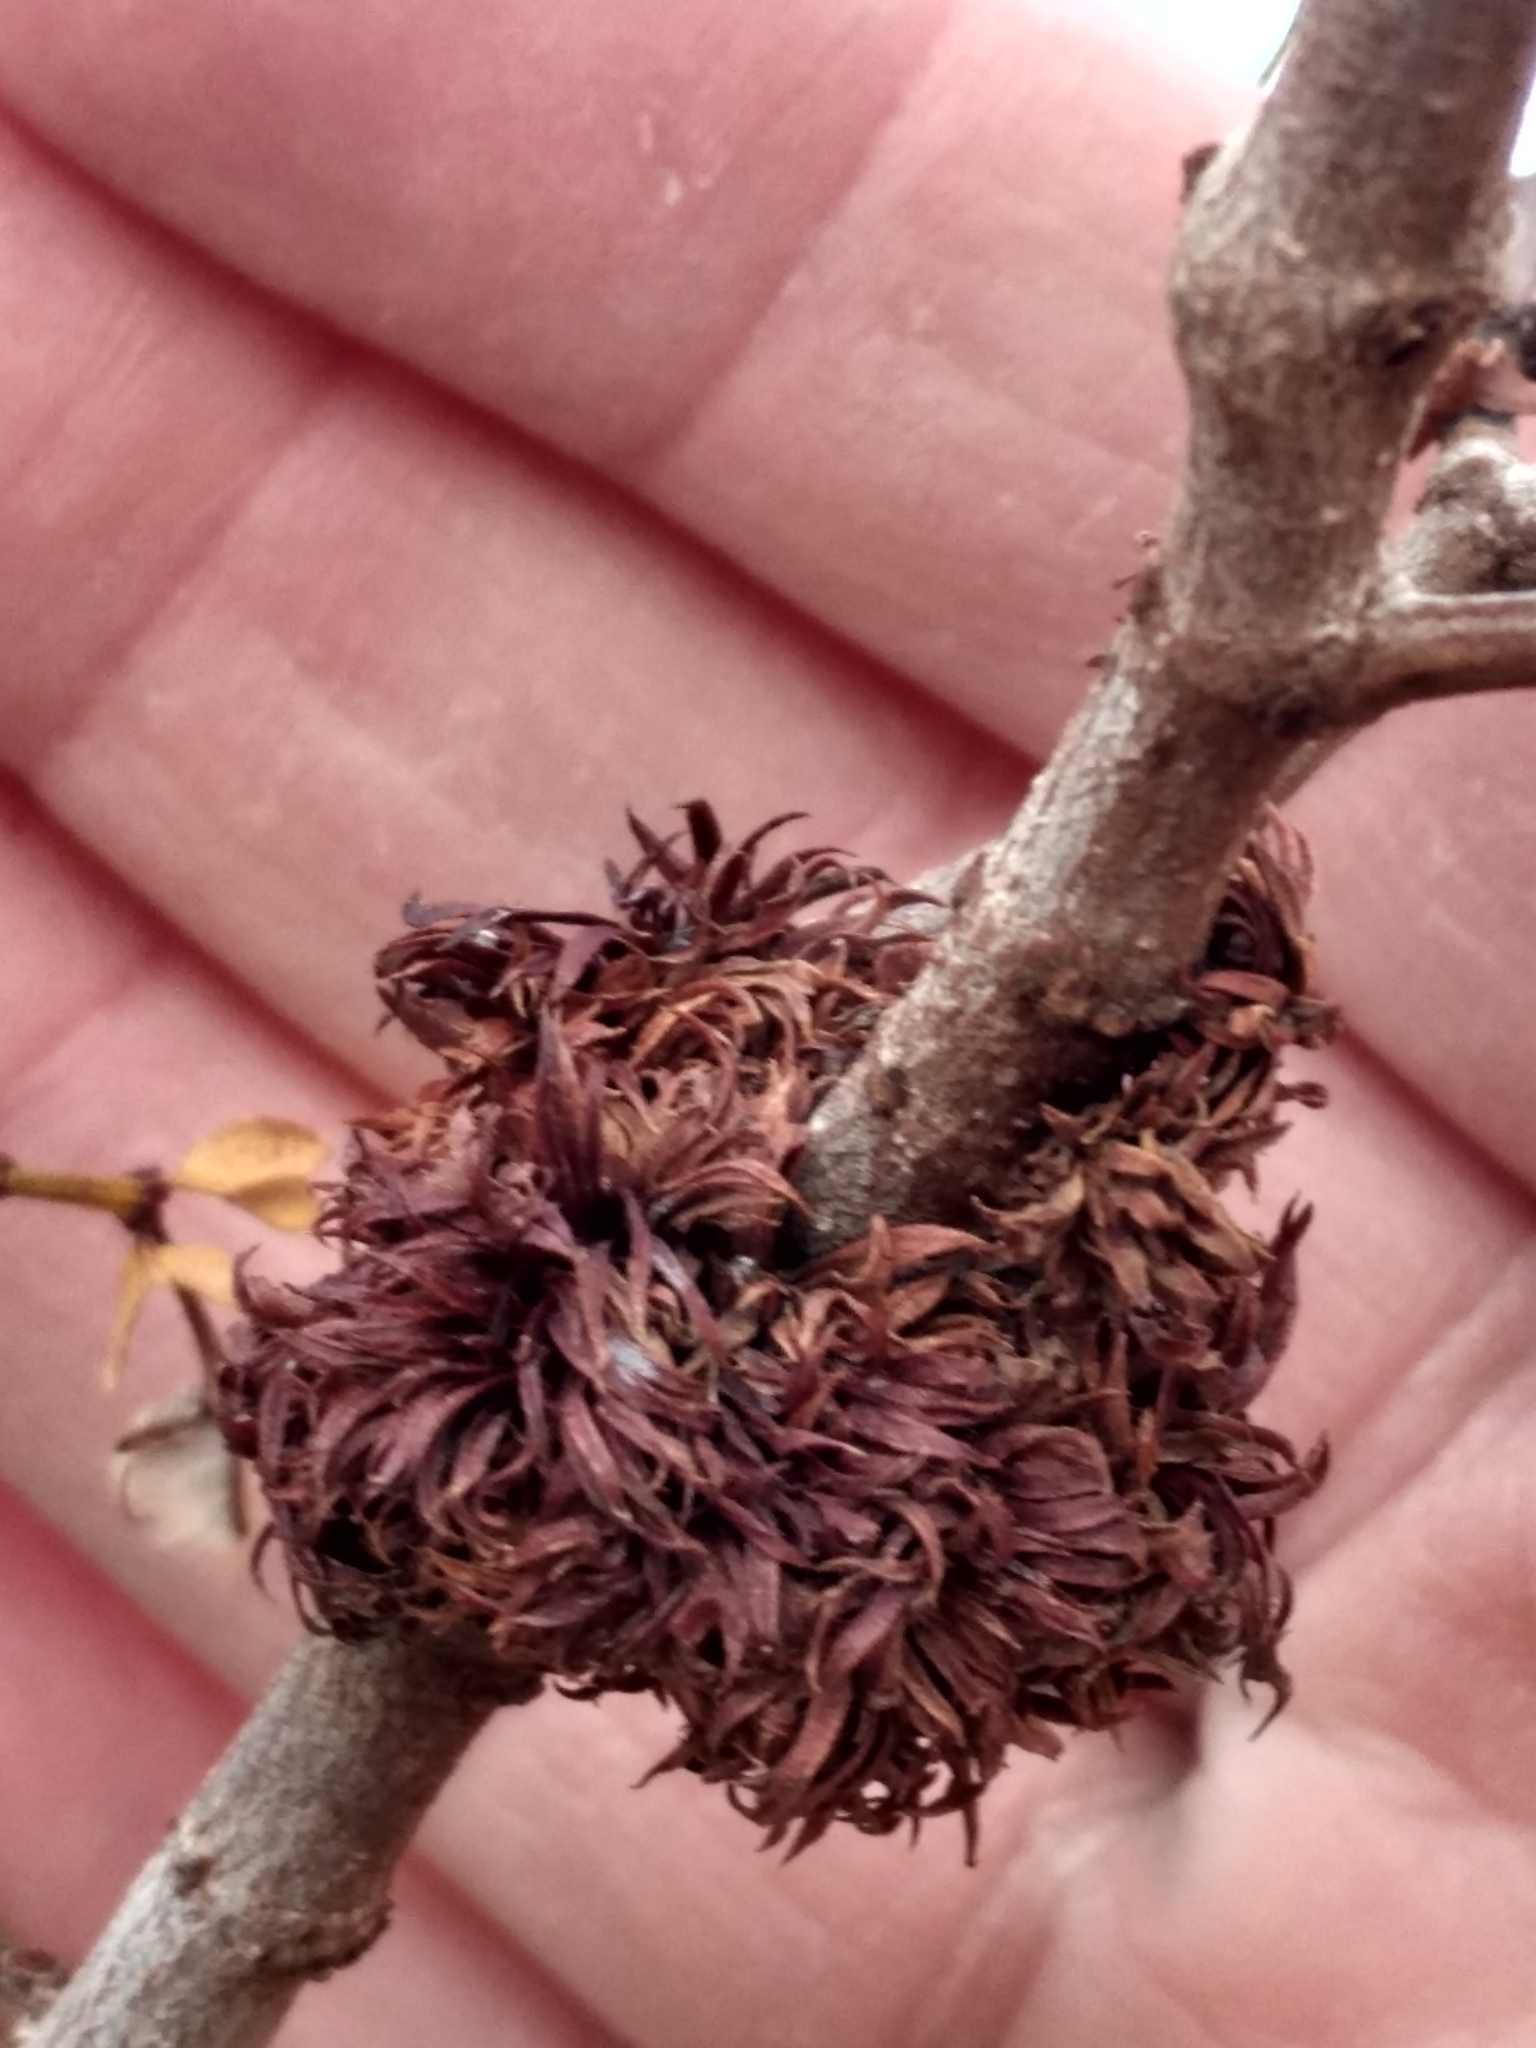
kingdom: Animalia
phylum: Arthropoda
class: Insecta
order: Diptera
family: Cecidomyiidae
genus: Asphondylia
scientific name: Asphondylia auripila
